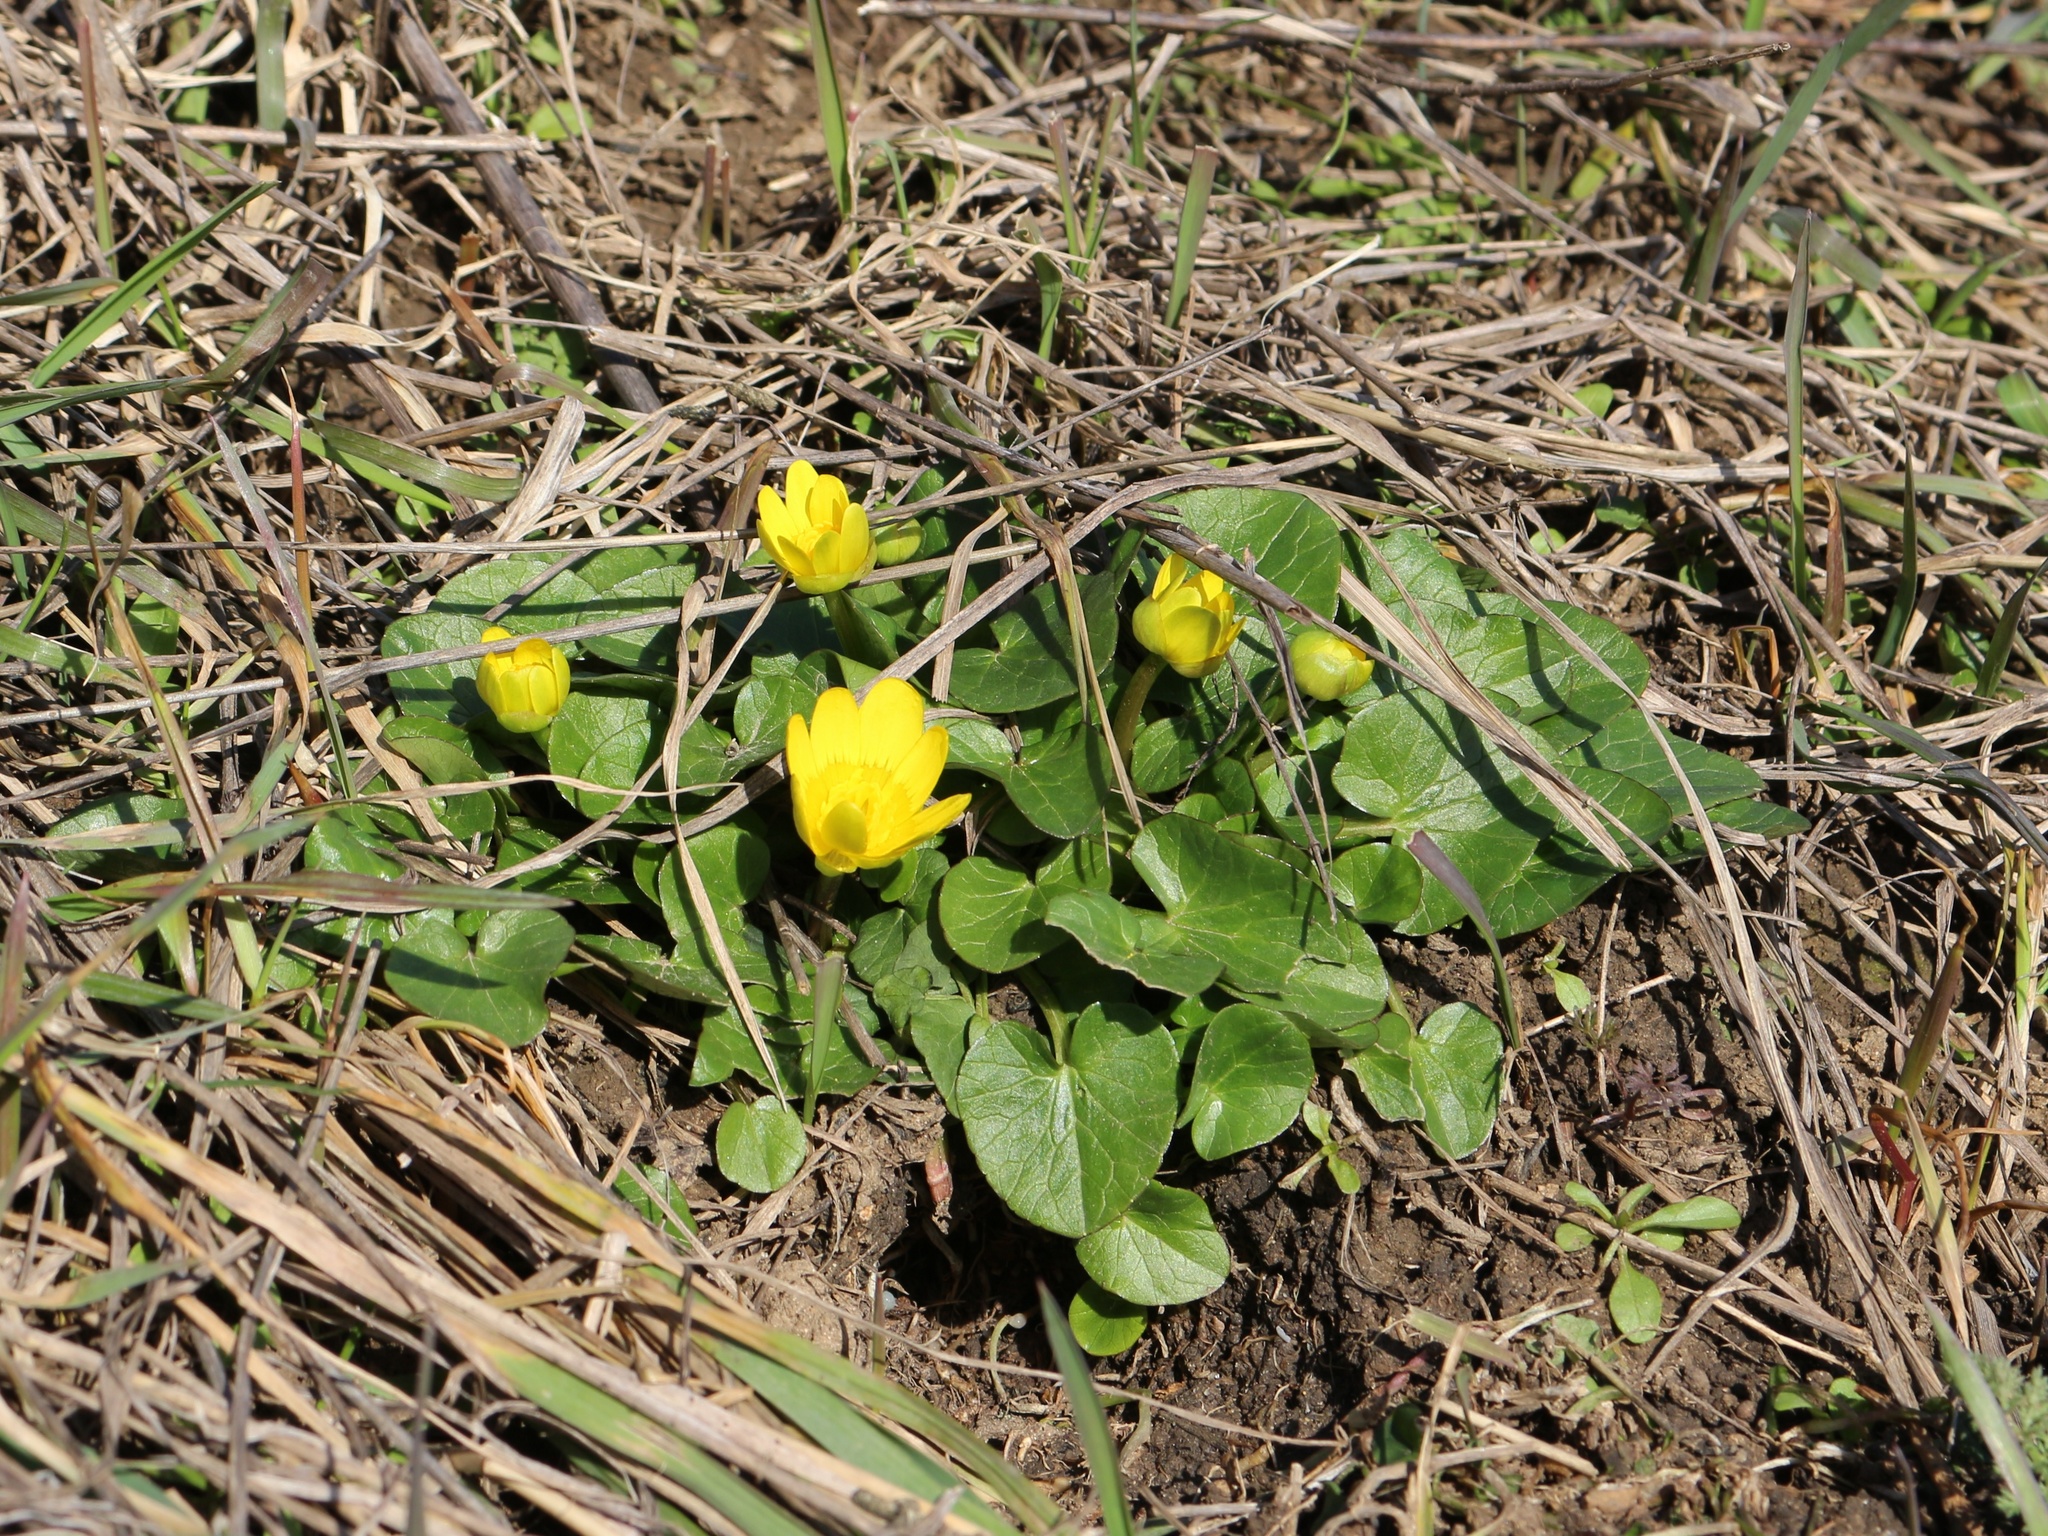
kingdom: Plantae
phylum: Tracheophyta
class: Magnoliopsida
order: Ranunculales
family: Ranunculaceae
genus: Ficaria
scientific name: Ficaria verna
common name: Lesser celandine
